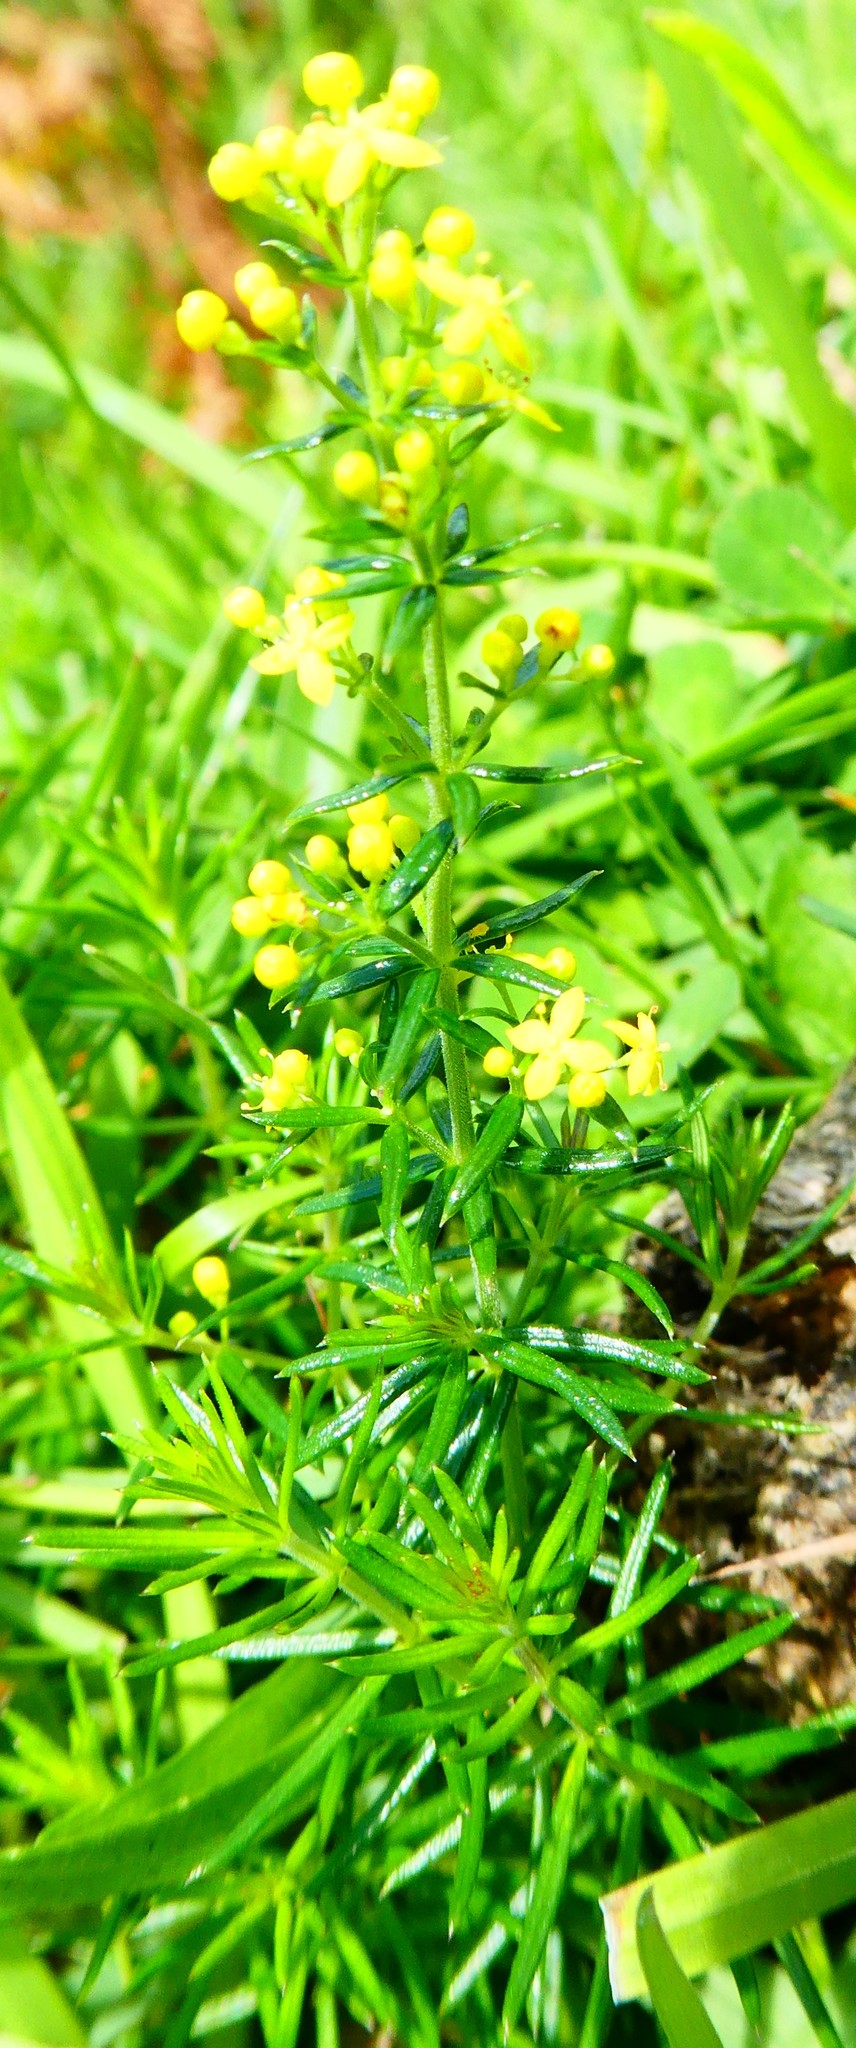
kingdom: Plantae
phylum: Tracheophyta
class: Magnoliopsida
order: Gentianales
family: Rubiaceae
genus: Galium
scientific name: Galium verum
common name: Lady's bedstraw
